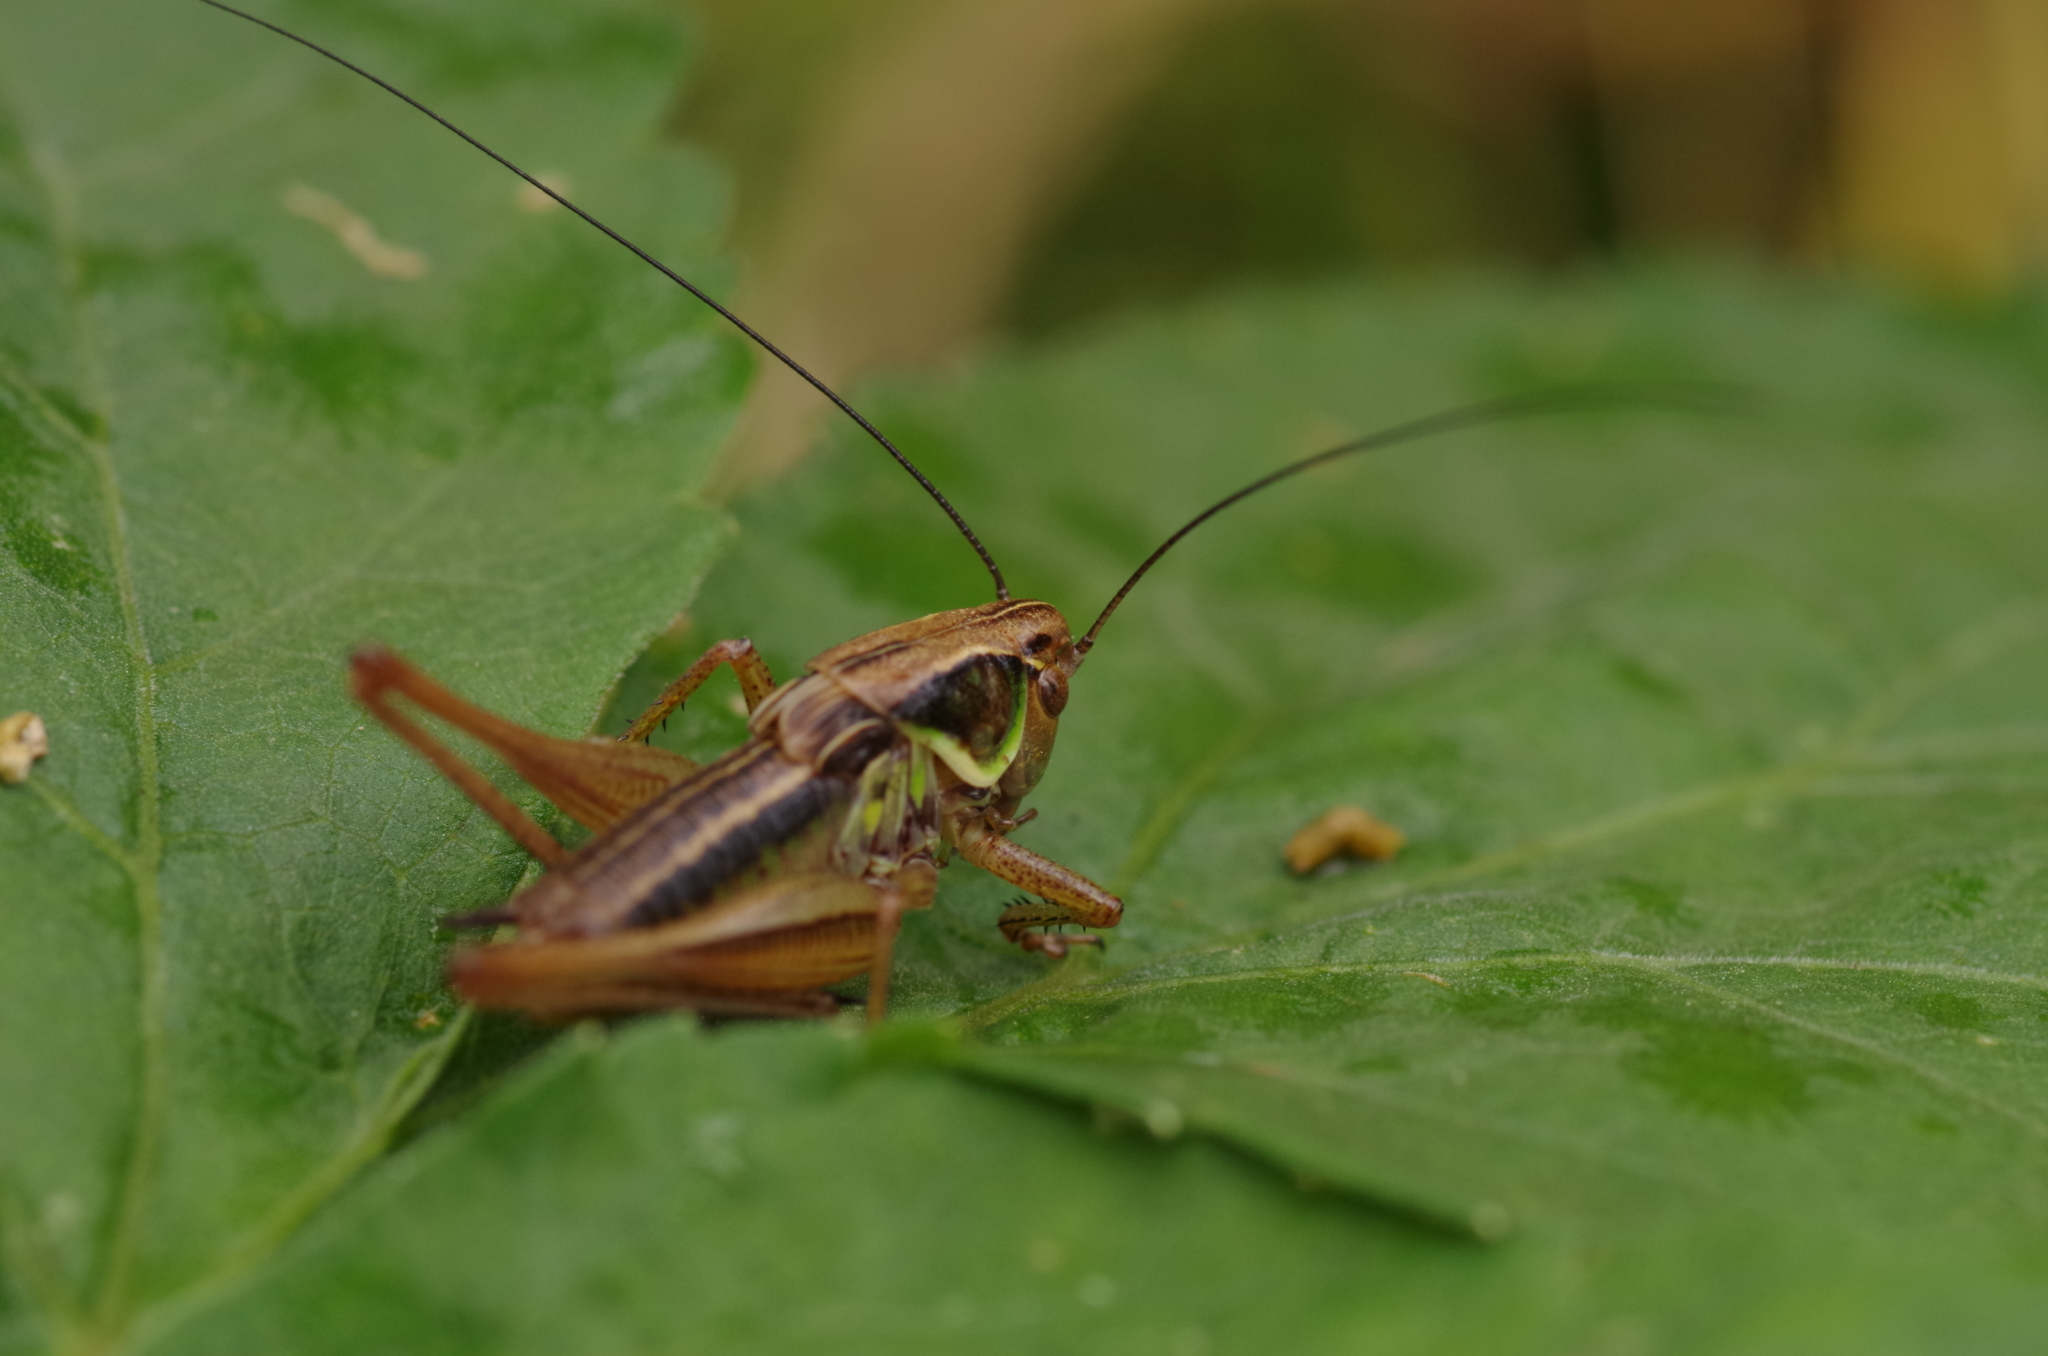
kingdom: Animalia
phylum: Arthropoda
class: Insecta
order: Orthoptera
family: Tettigoniidae
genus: Roeseliana
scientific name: Roeseliana roeselii
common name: Roesel's bush cricket
